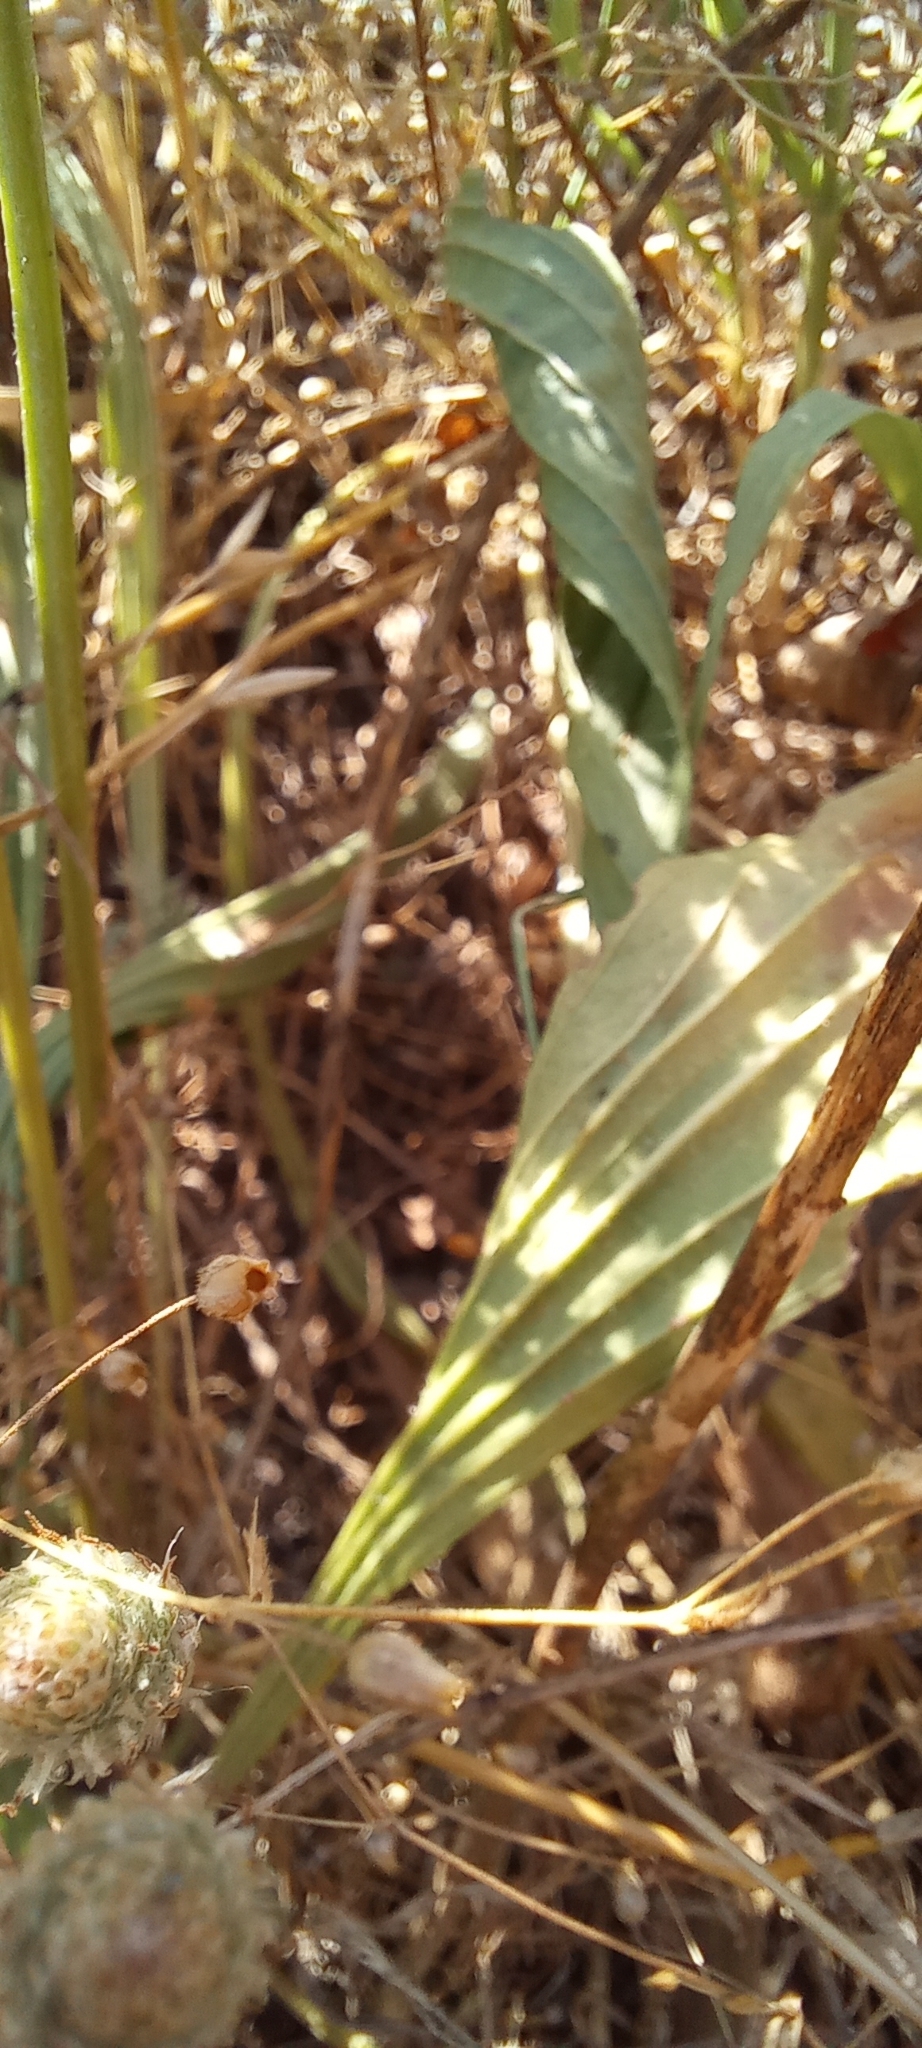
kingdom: Plantae
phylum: Tracheophyta
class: Magnoliopsida
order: Lamiales
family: Plantaginaceae
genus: Plantago
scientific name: Plantago lanceolata
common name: Ribwort plantain
